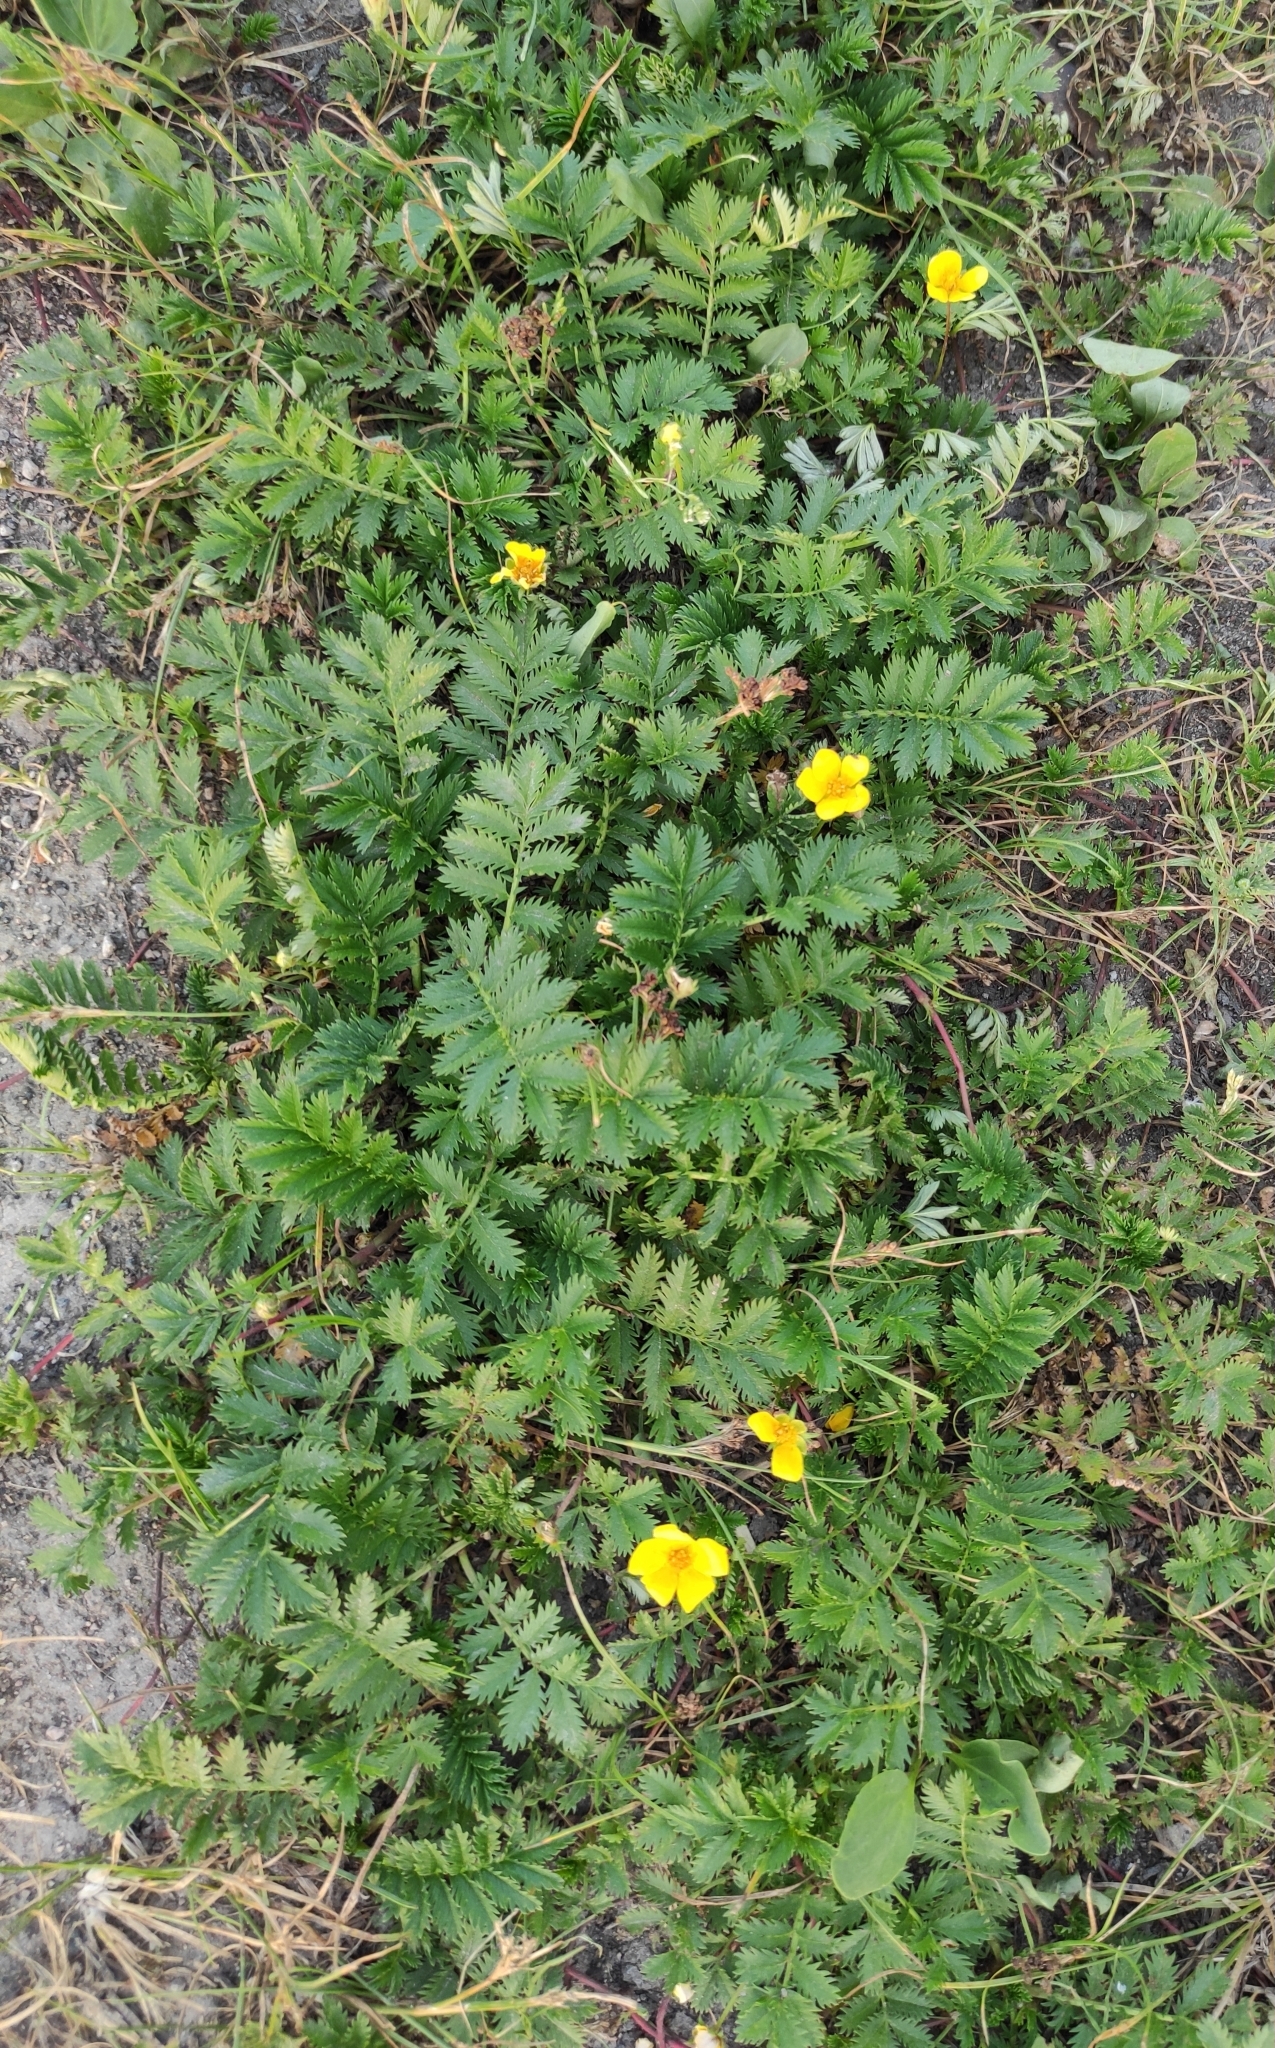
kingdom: Plantae
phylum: Tracheophyta
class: Magnoliopsida
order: Rosales
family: Rosaceae
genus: Argentina
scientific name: Argentina anserina
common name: Common silverweed
